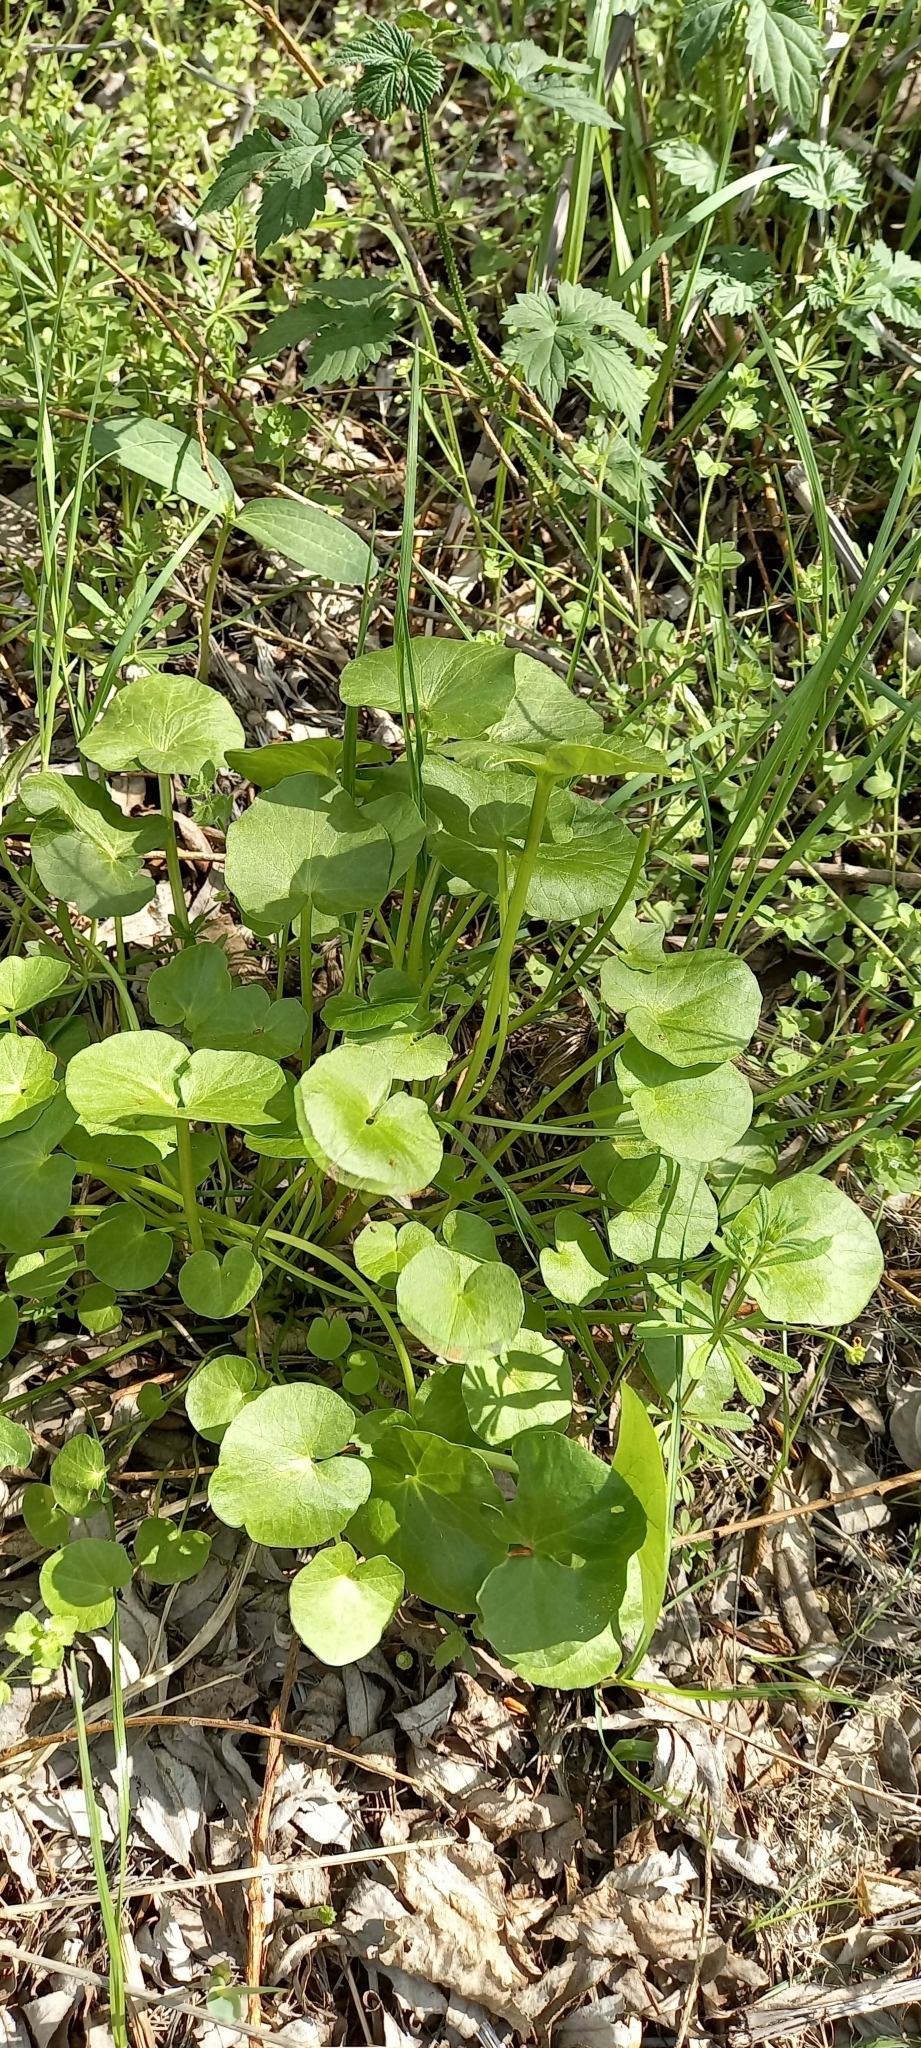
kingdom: Plantae
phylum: Tracheophyta
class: Magnoliopsida
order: Ranunculales
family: Ranunculaceae
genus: Ficaria
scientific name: Ficaria verna
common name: Lesser celandine
